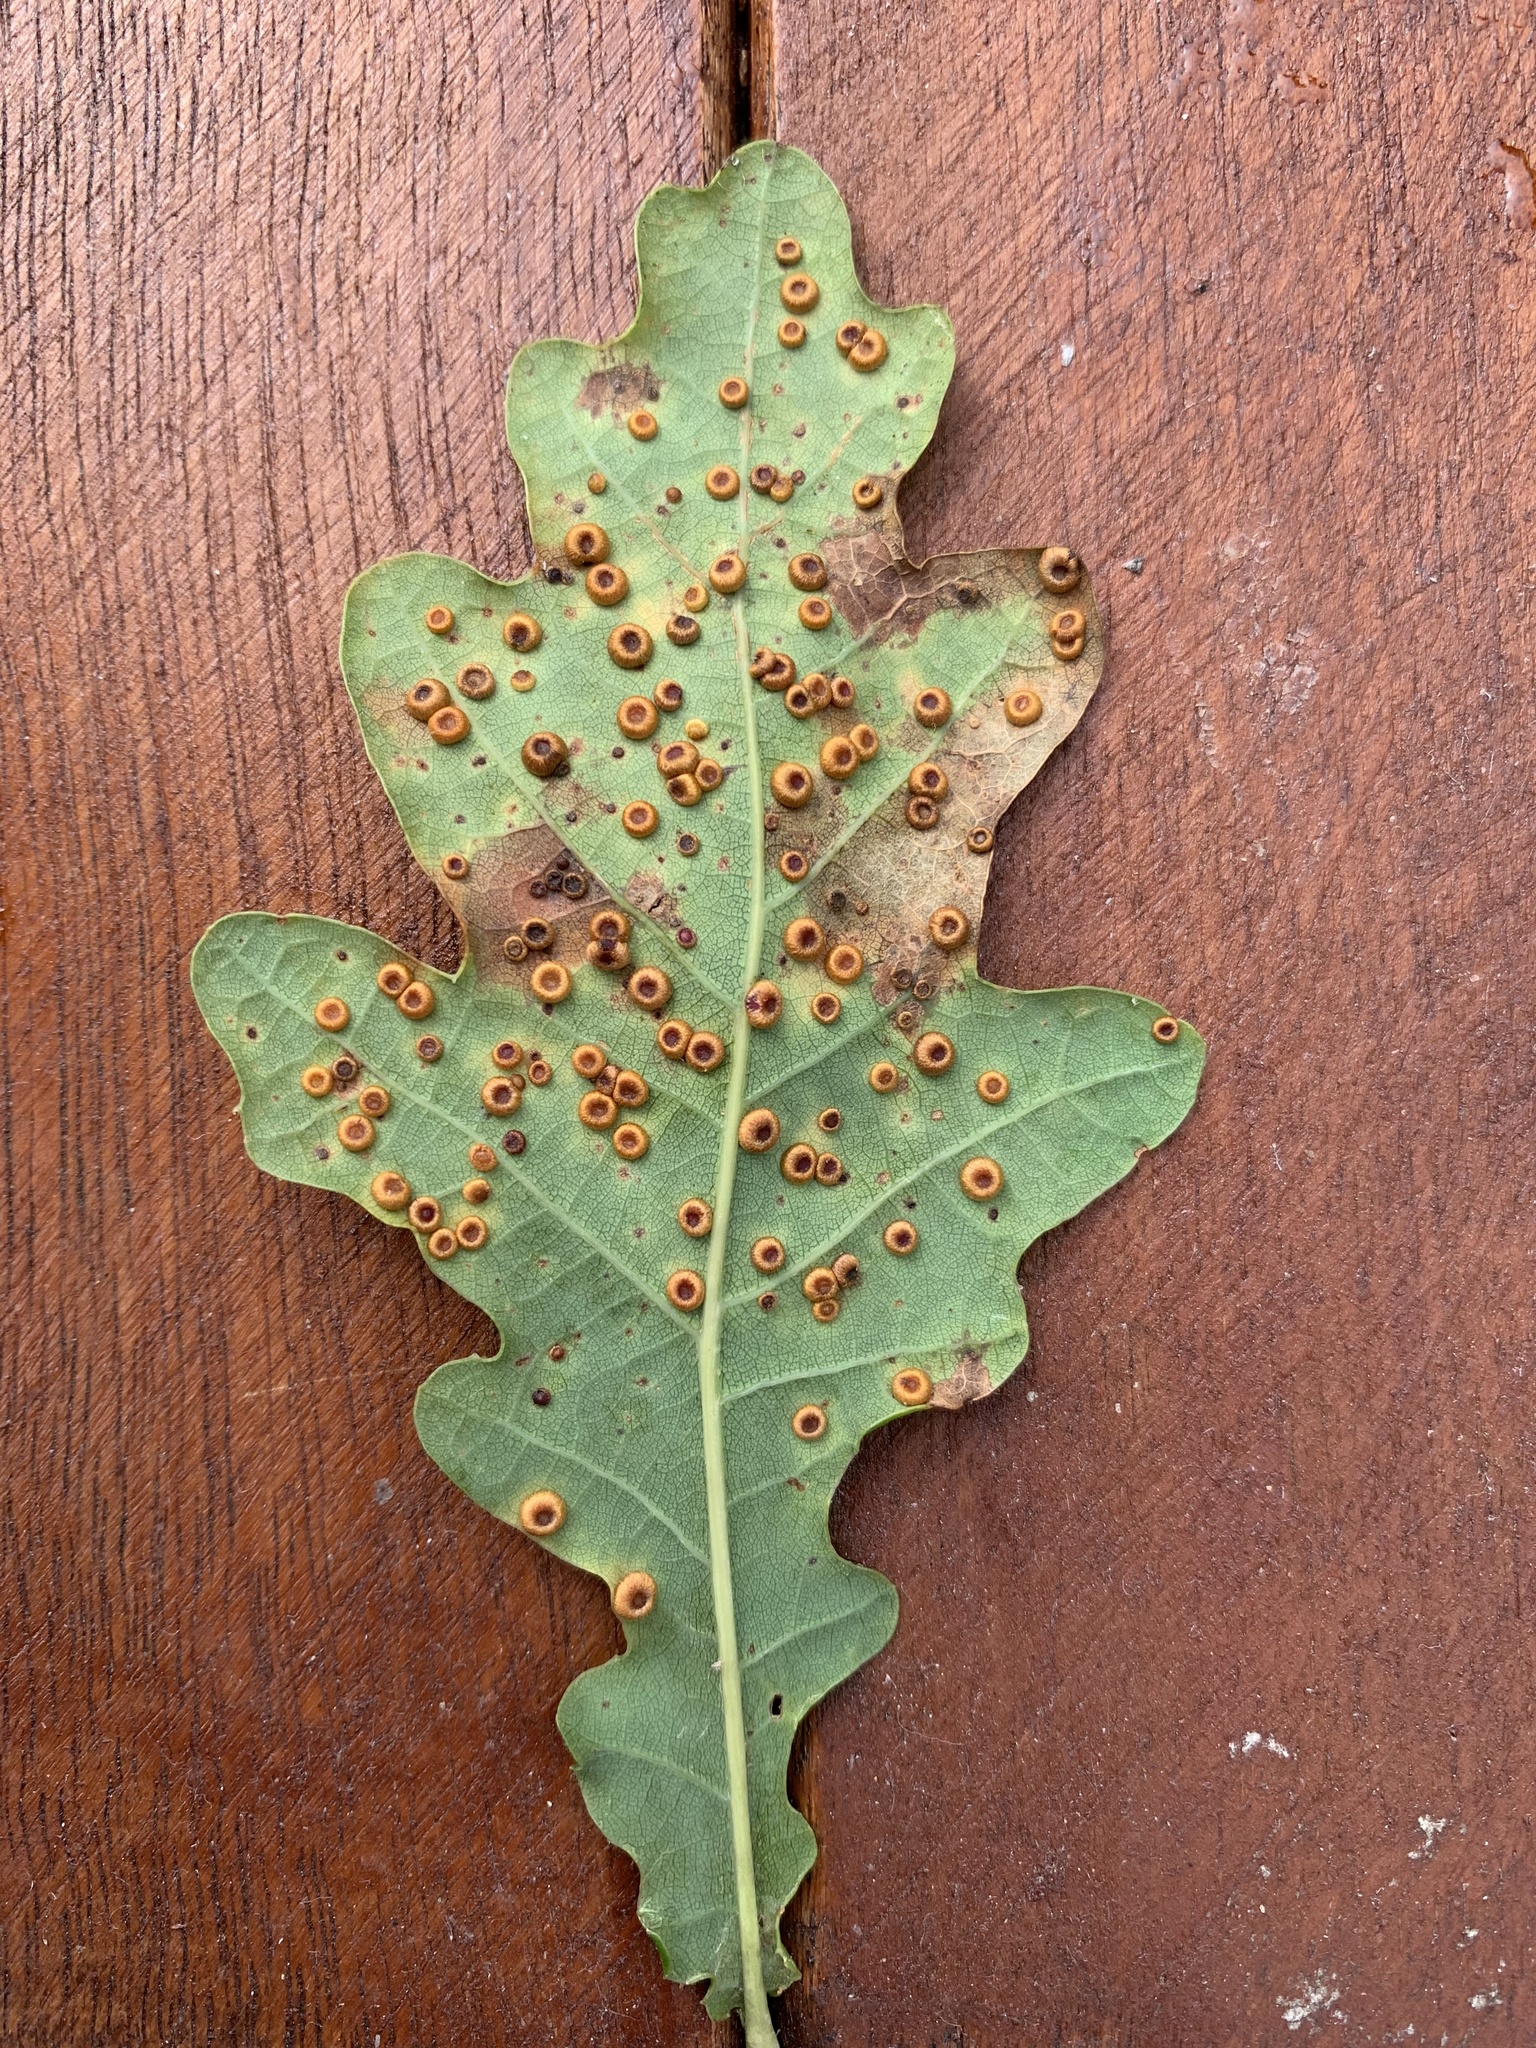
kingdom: Animalia
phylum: Arthropoda
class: Insecta
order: Hymenoptera
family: Cynipidae
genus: Neuroterus
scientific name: Neuroterus numismalis
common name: Silk-button spangle gall
